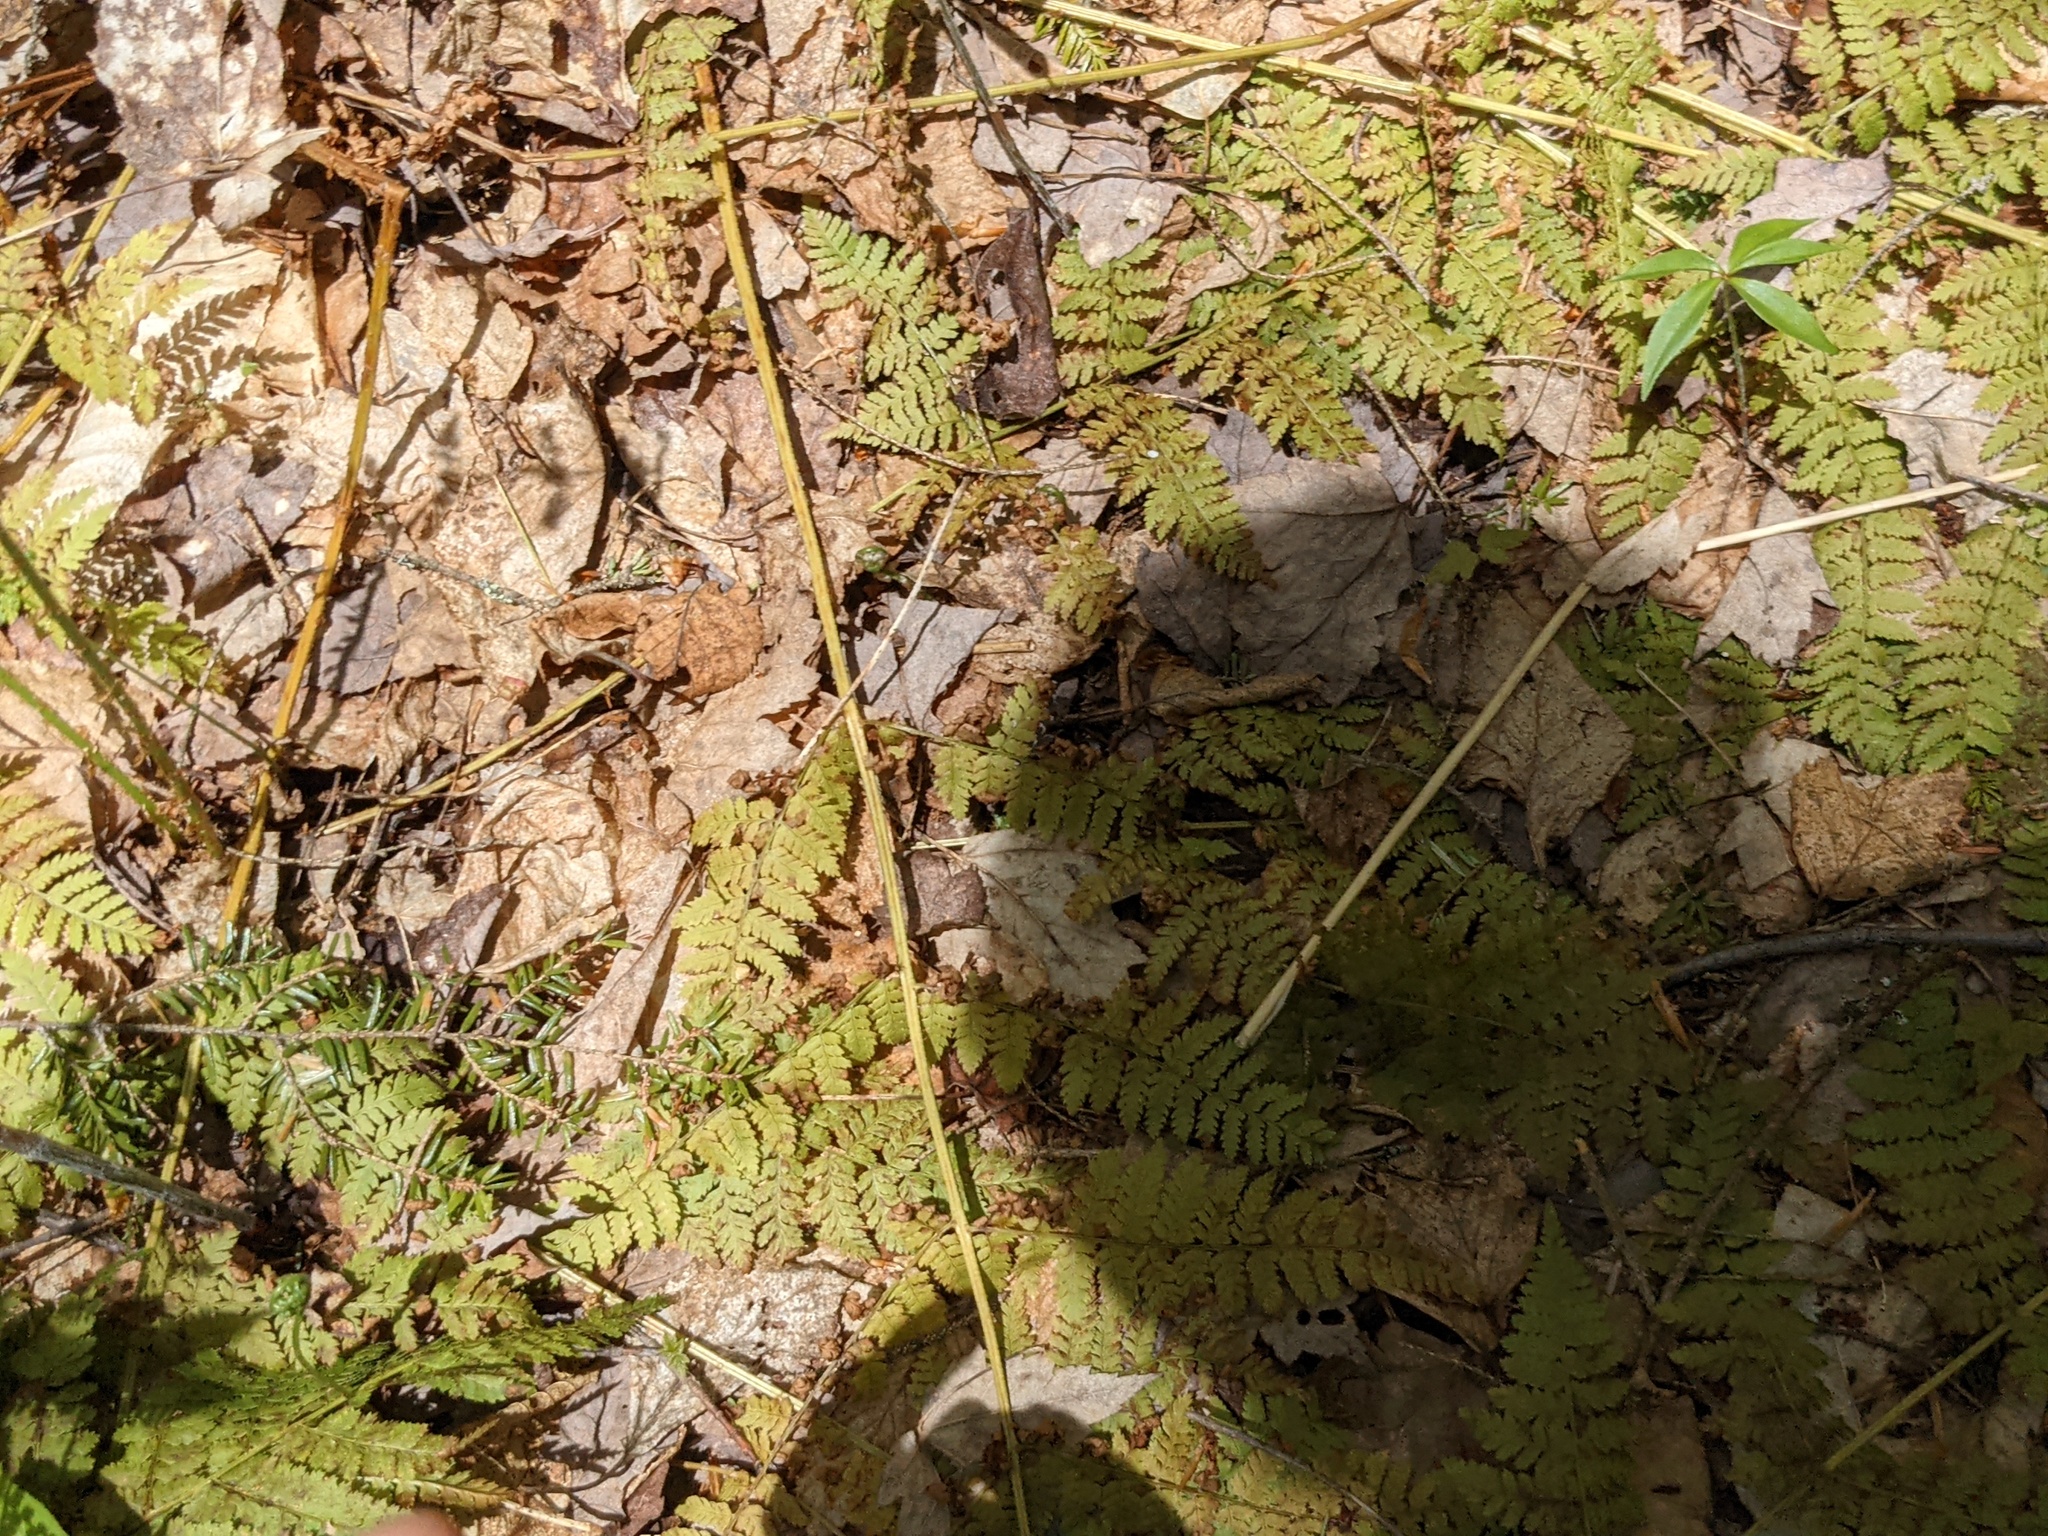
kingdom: Plantae
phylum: Tracheophyta
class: Polypodiopsida
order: Polypodiales
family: Dryopteridaceae
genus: Dryopteris
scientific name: Dryopteris intermedia
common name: Evergreen wood fern
